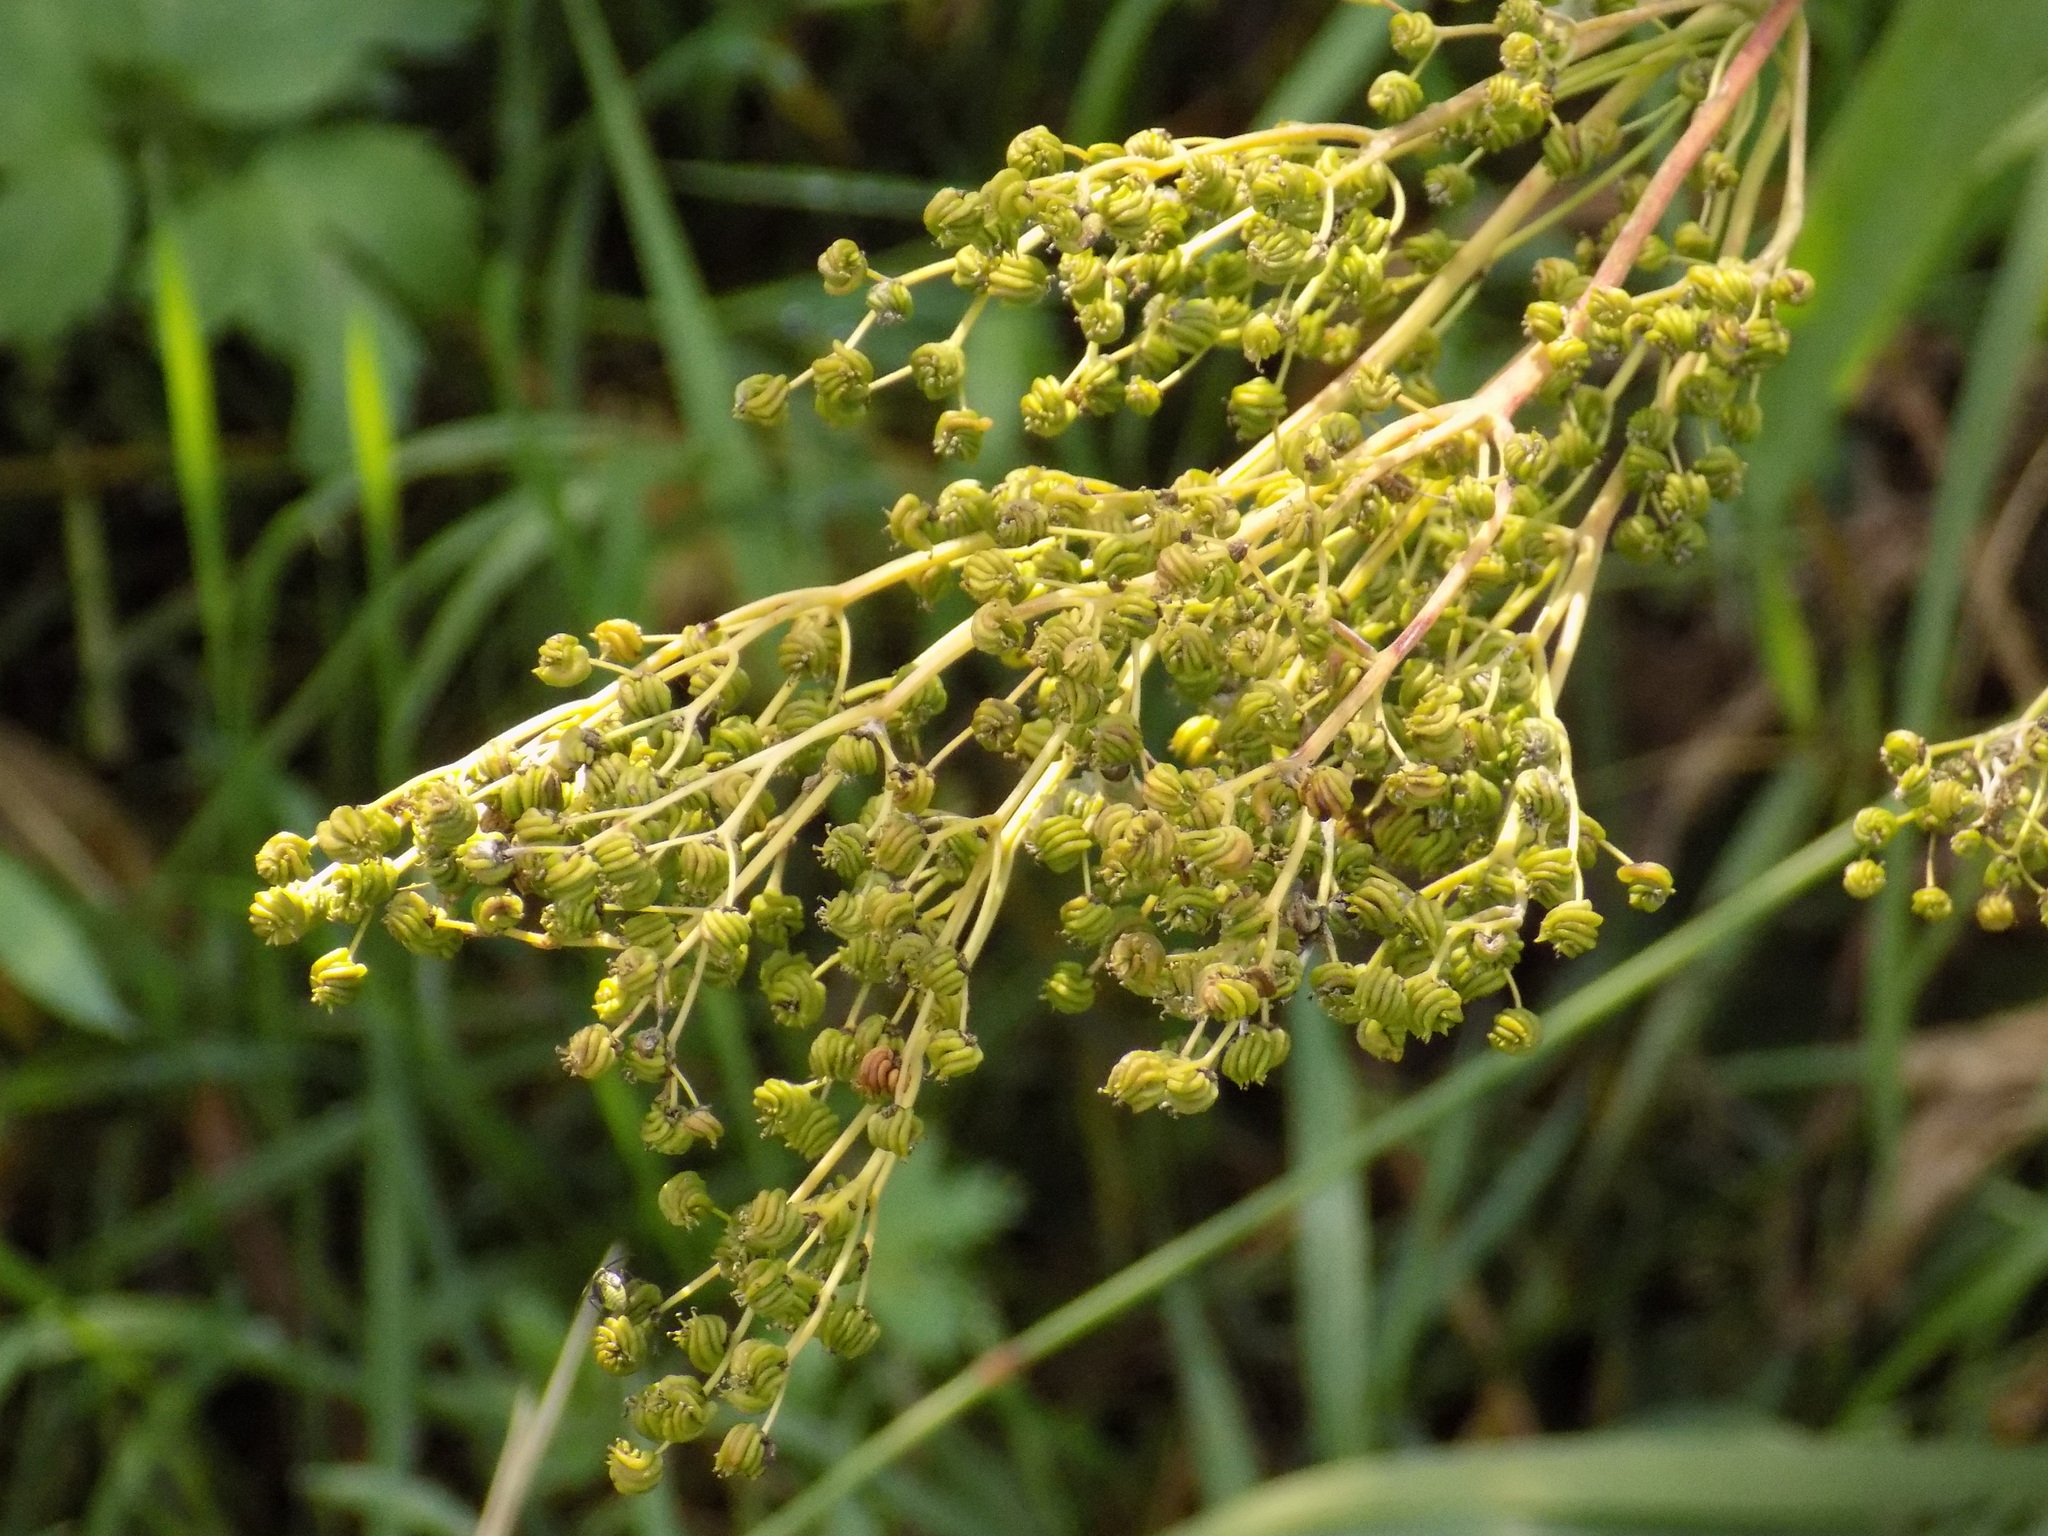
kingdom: Plantae
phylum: Tracheophyta
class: Magnoliopsida
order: Rosales
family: Rosaceae
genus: Filipendula
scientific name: Filipendula ulmaria
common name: Meadowsweet
